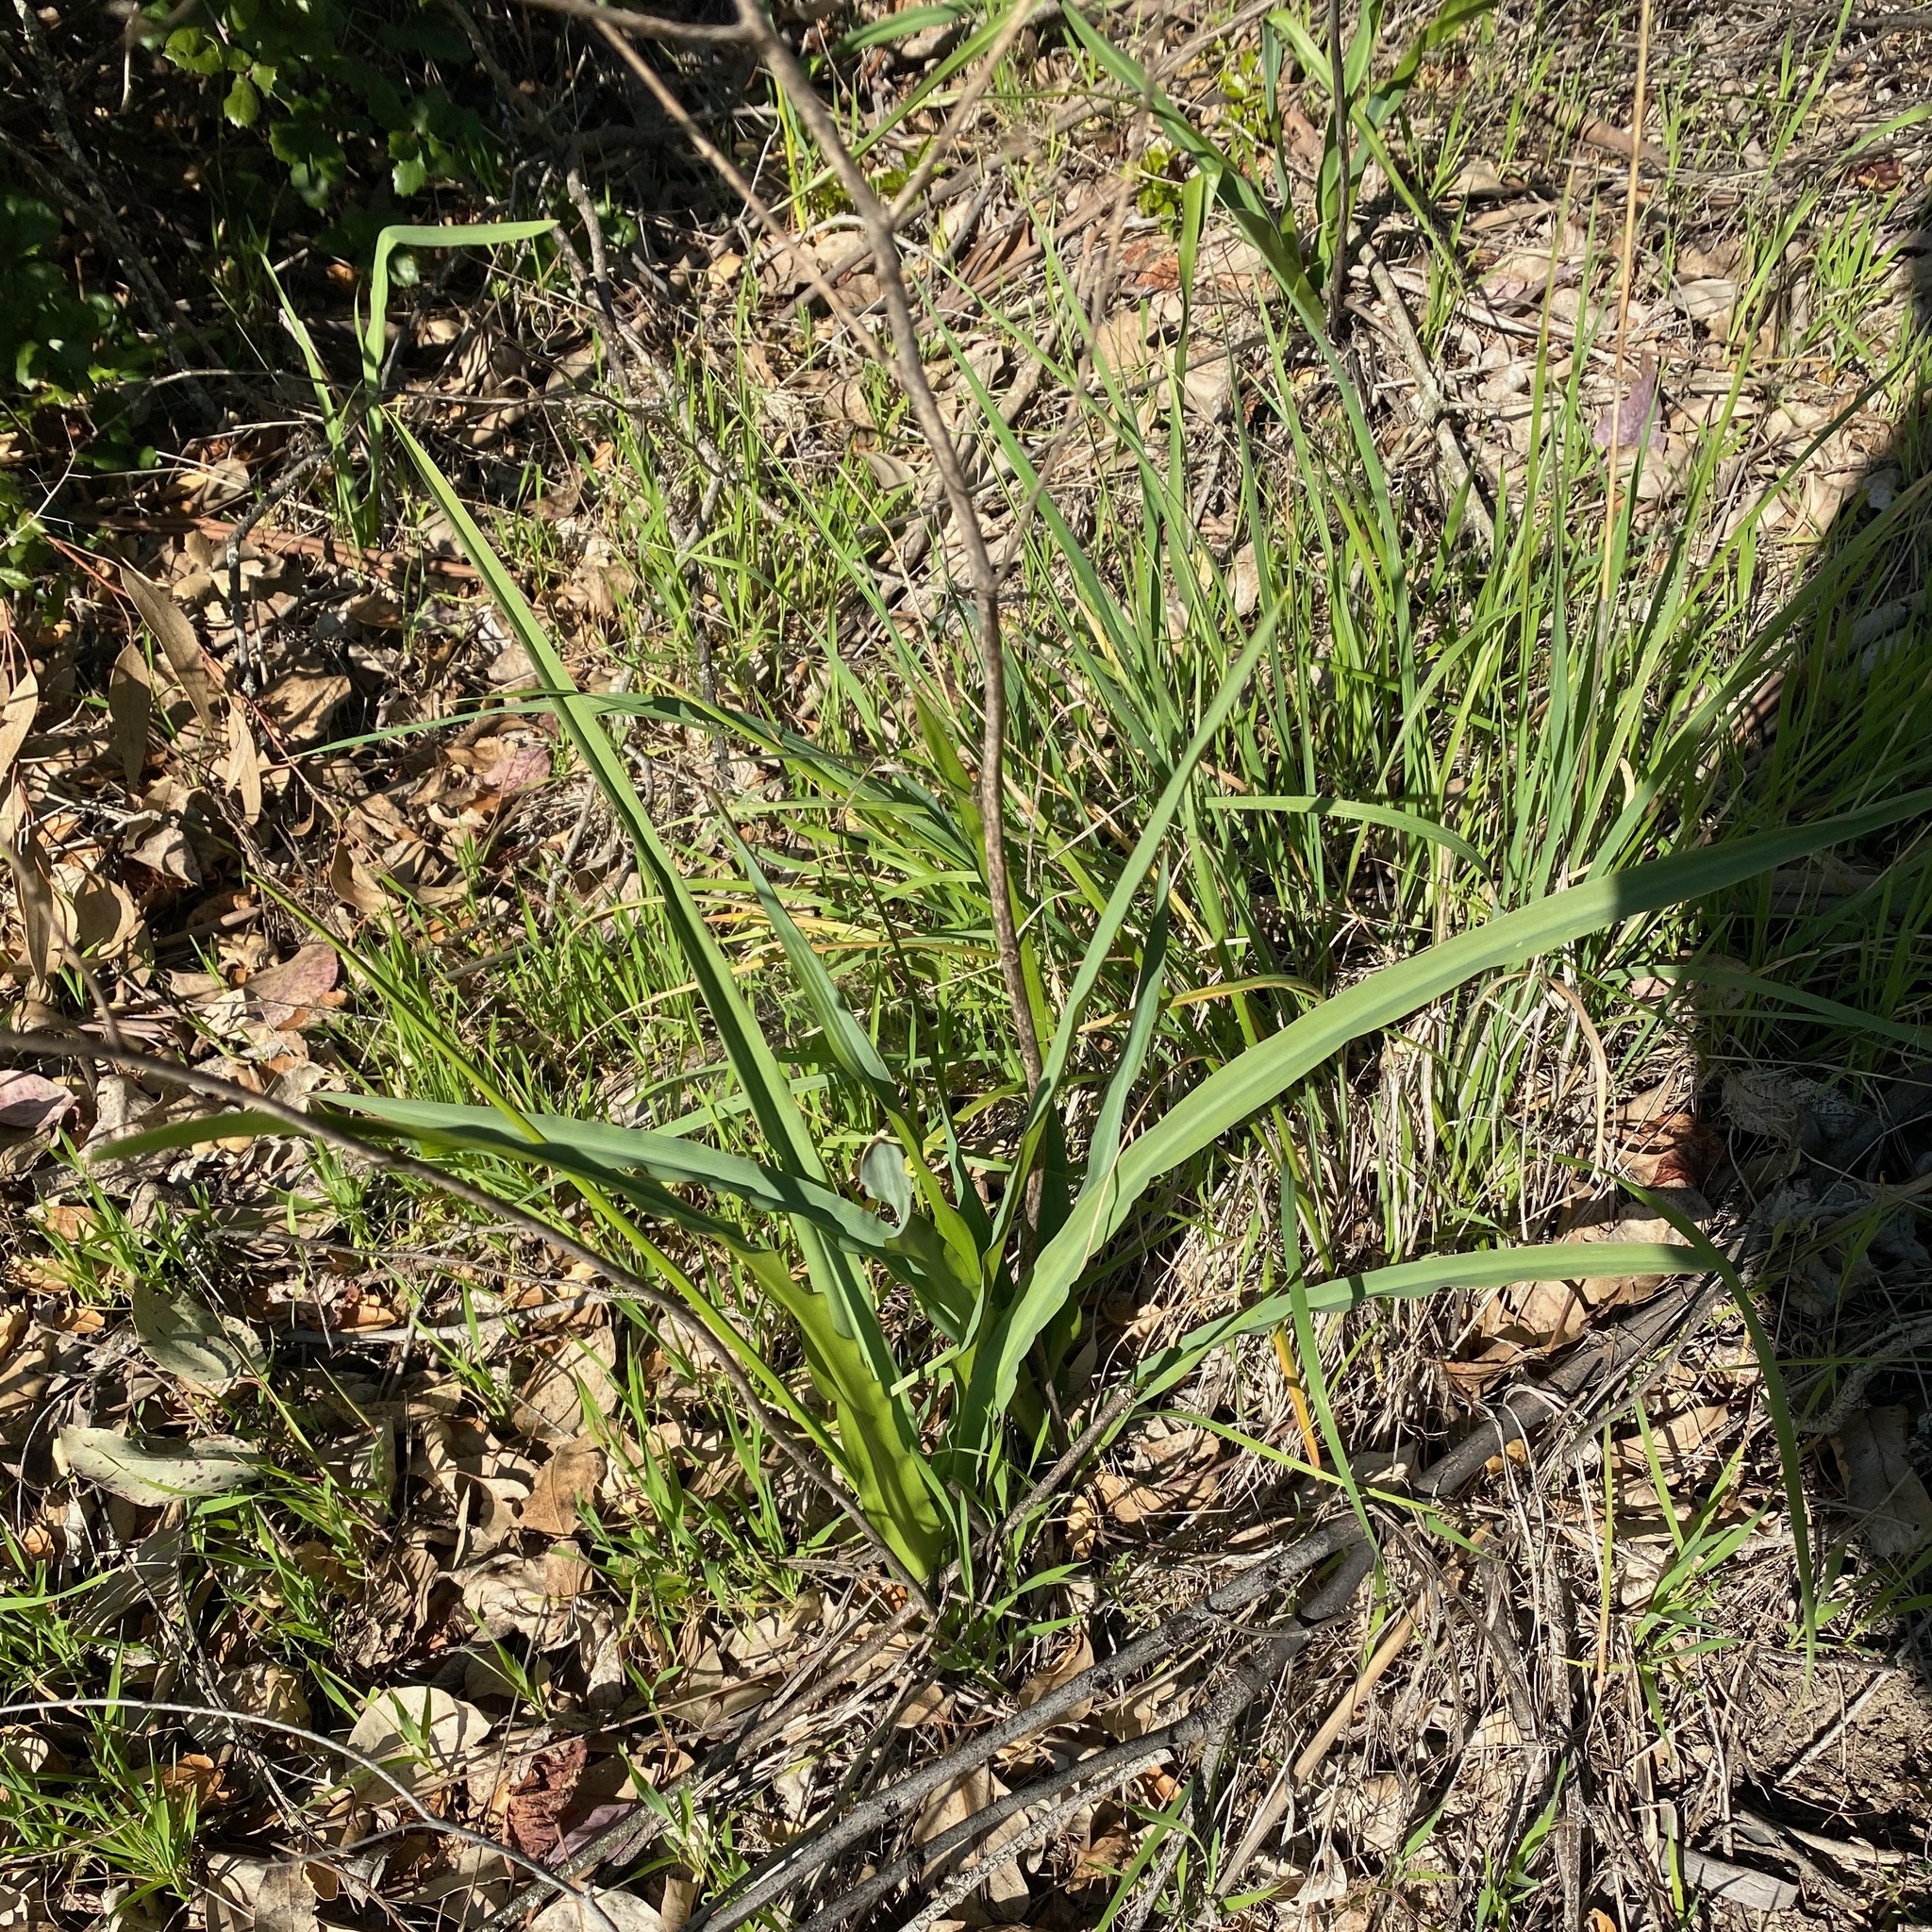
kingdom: Plantae
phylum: Tracheophyta
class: Liliopsida
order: Asparagales
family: Asparagaceae
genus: Chlorogalum
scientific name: Chlorogalum pomeridianum
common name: Amole
